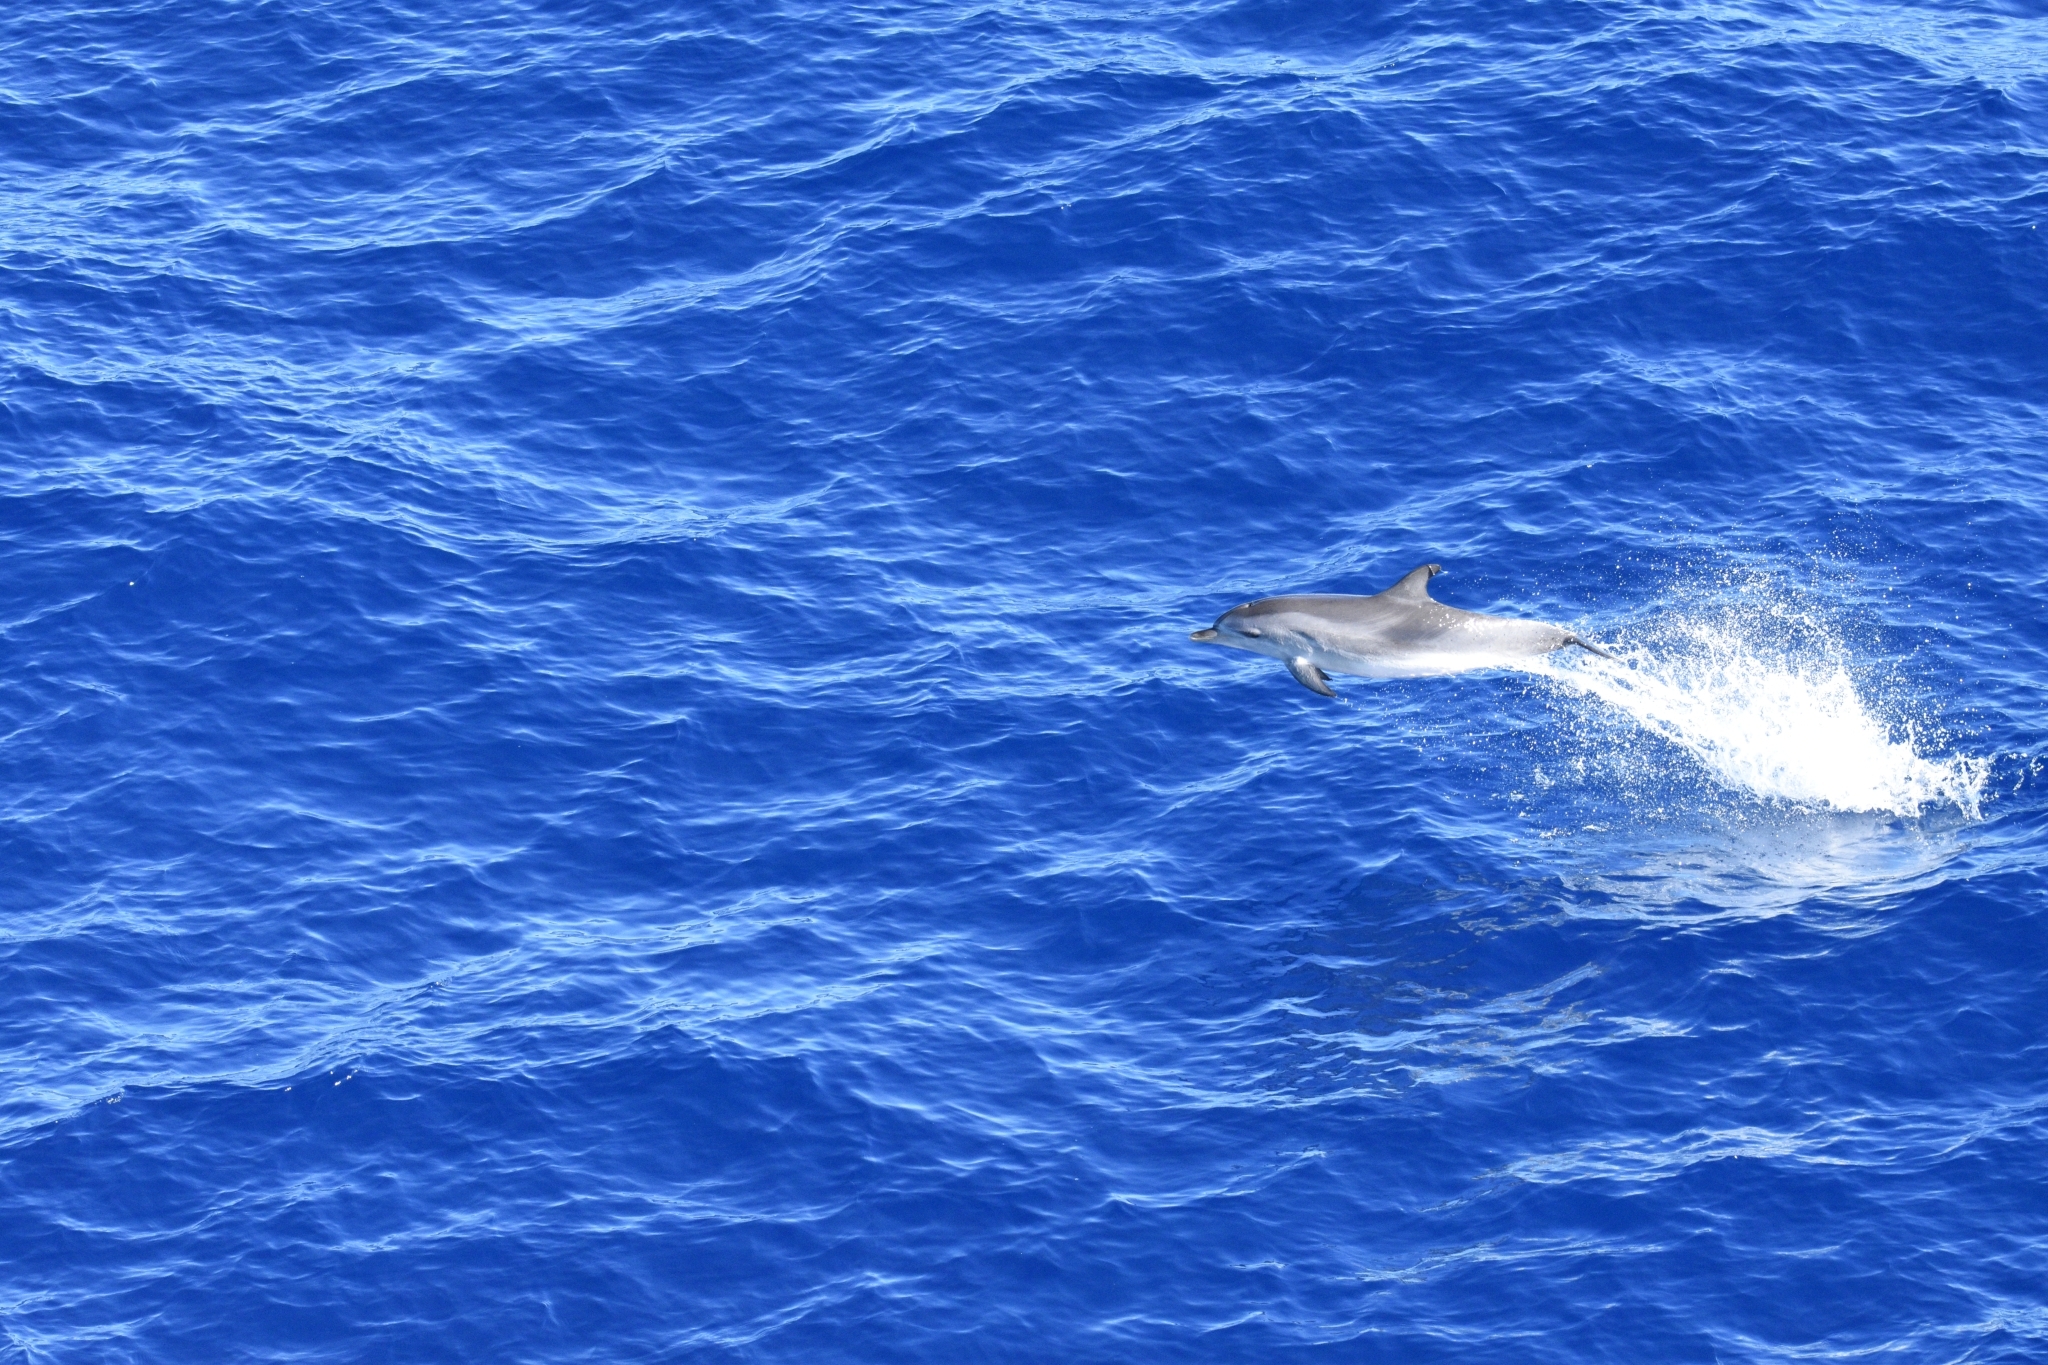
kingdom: Animalia
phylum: Chordata
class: Mammalia
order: Cetacea
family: Delphinidae
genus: Stenella
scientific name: Stenella frontalis
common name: Atlantic spotted dolphin
